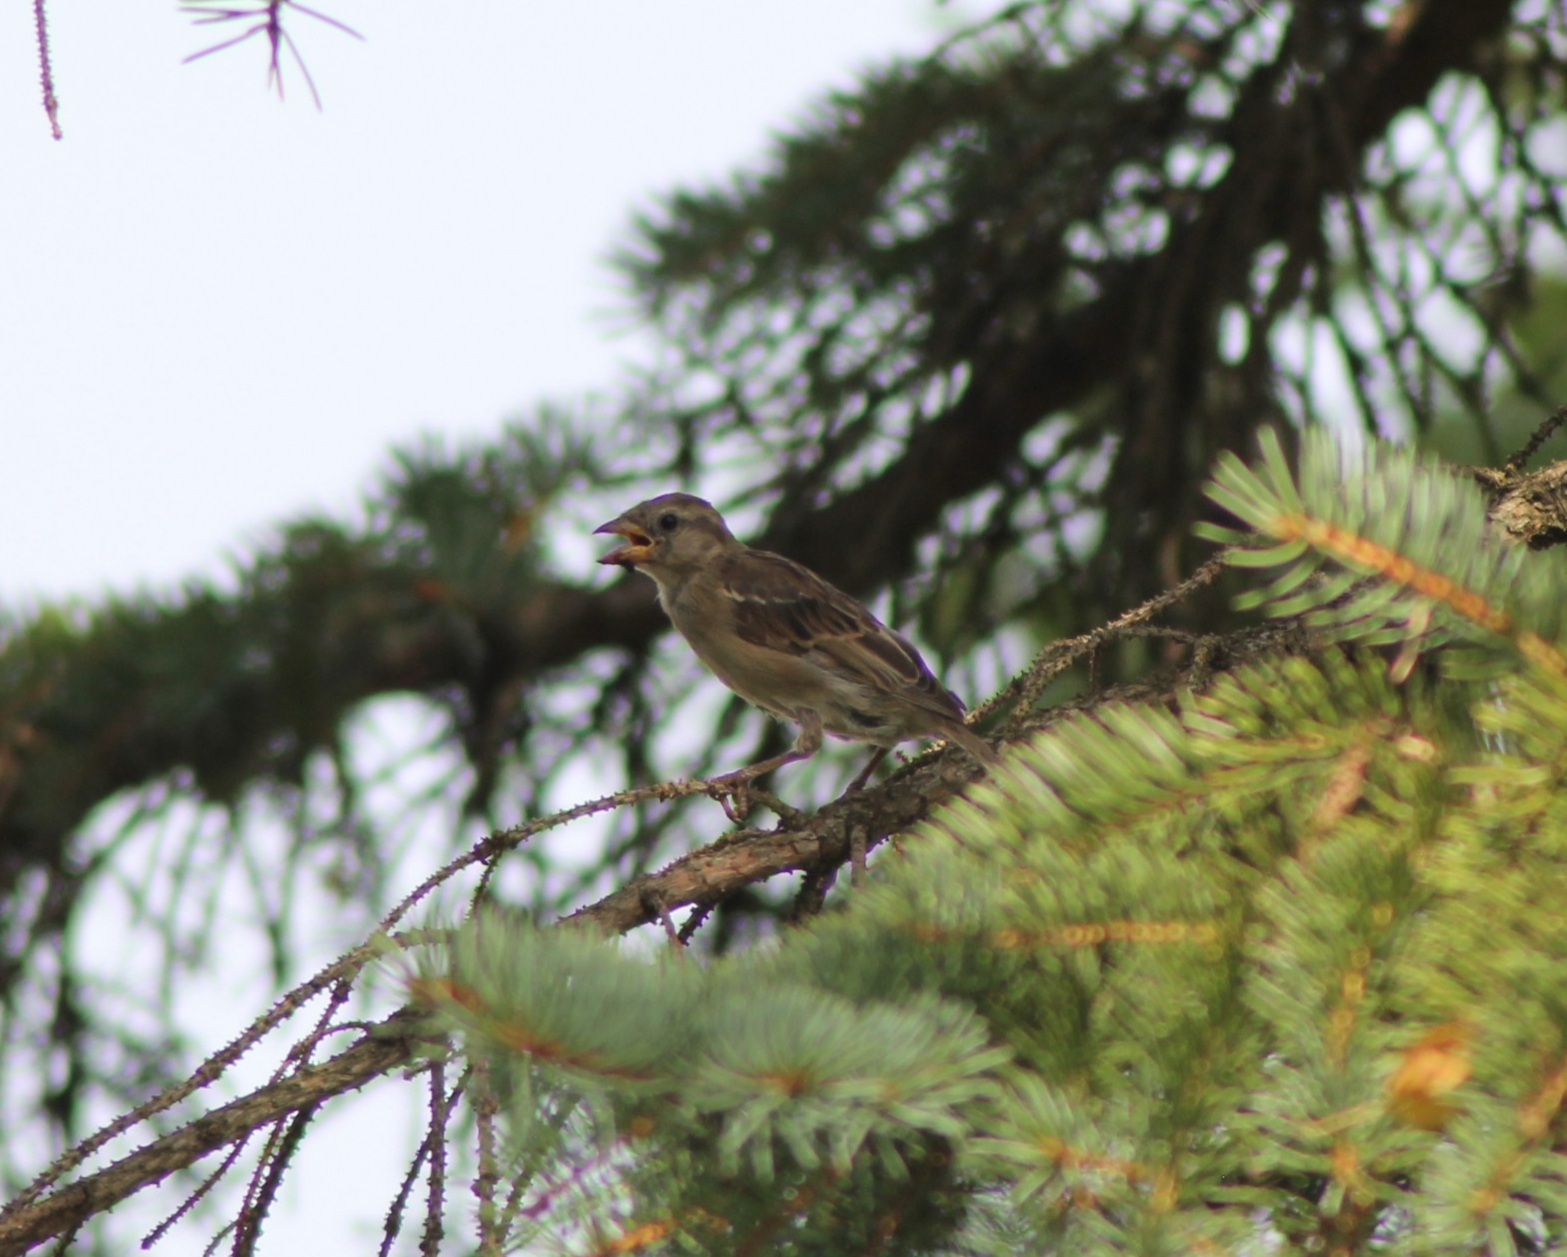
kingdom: Animalia
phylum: Chordata
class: Aves
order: Passeriformes
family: Passeridae
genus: Passer
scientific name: Passer domesticus
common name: House sparrow
